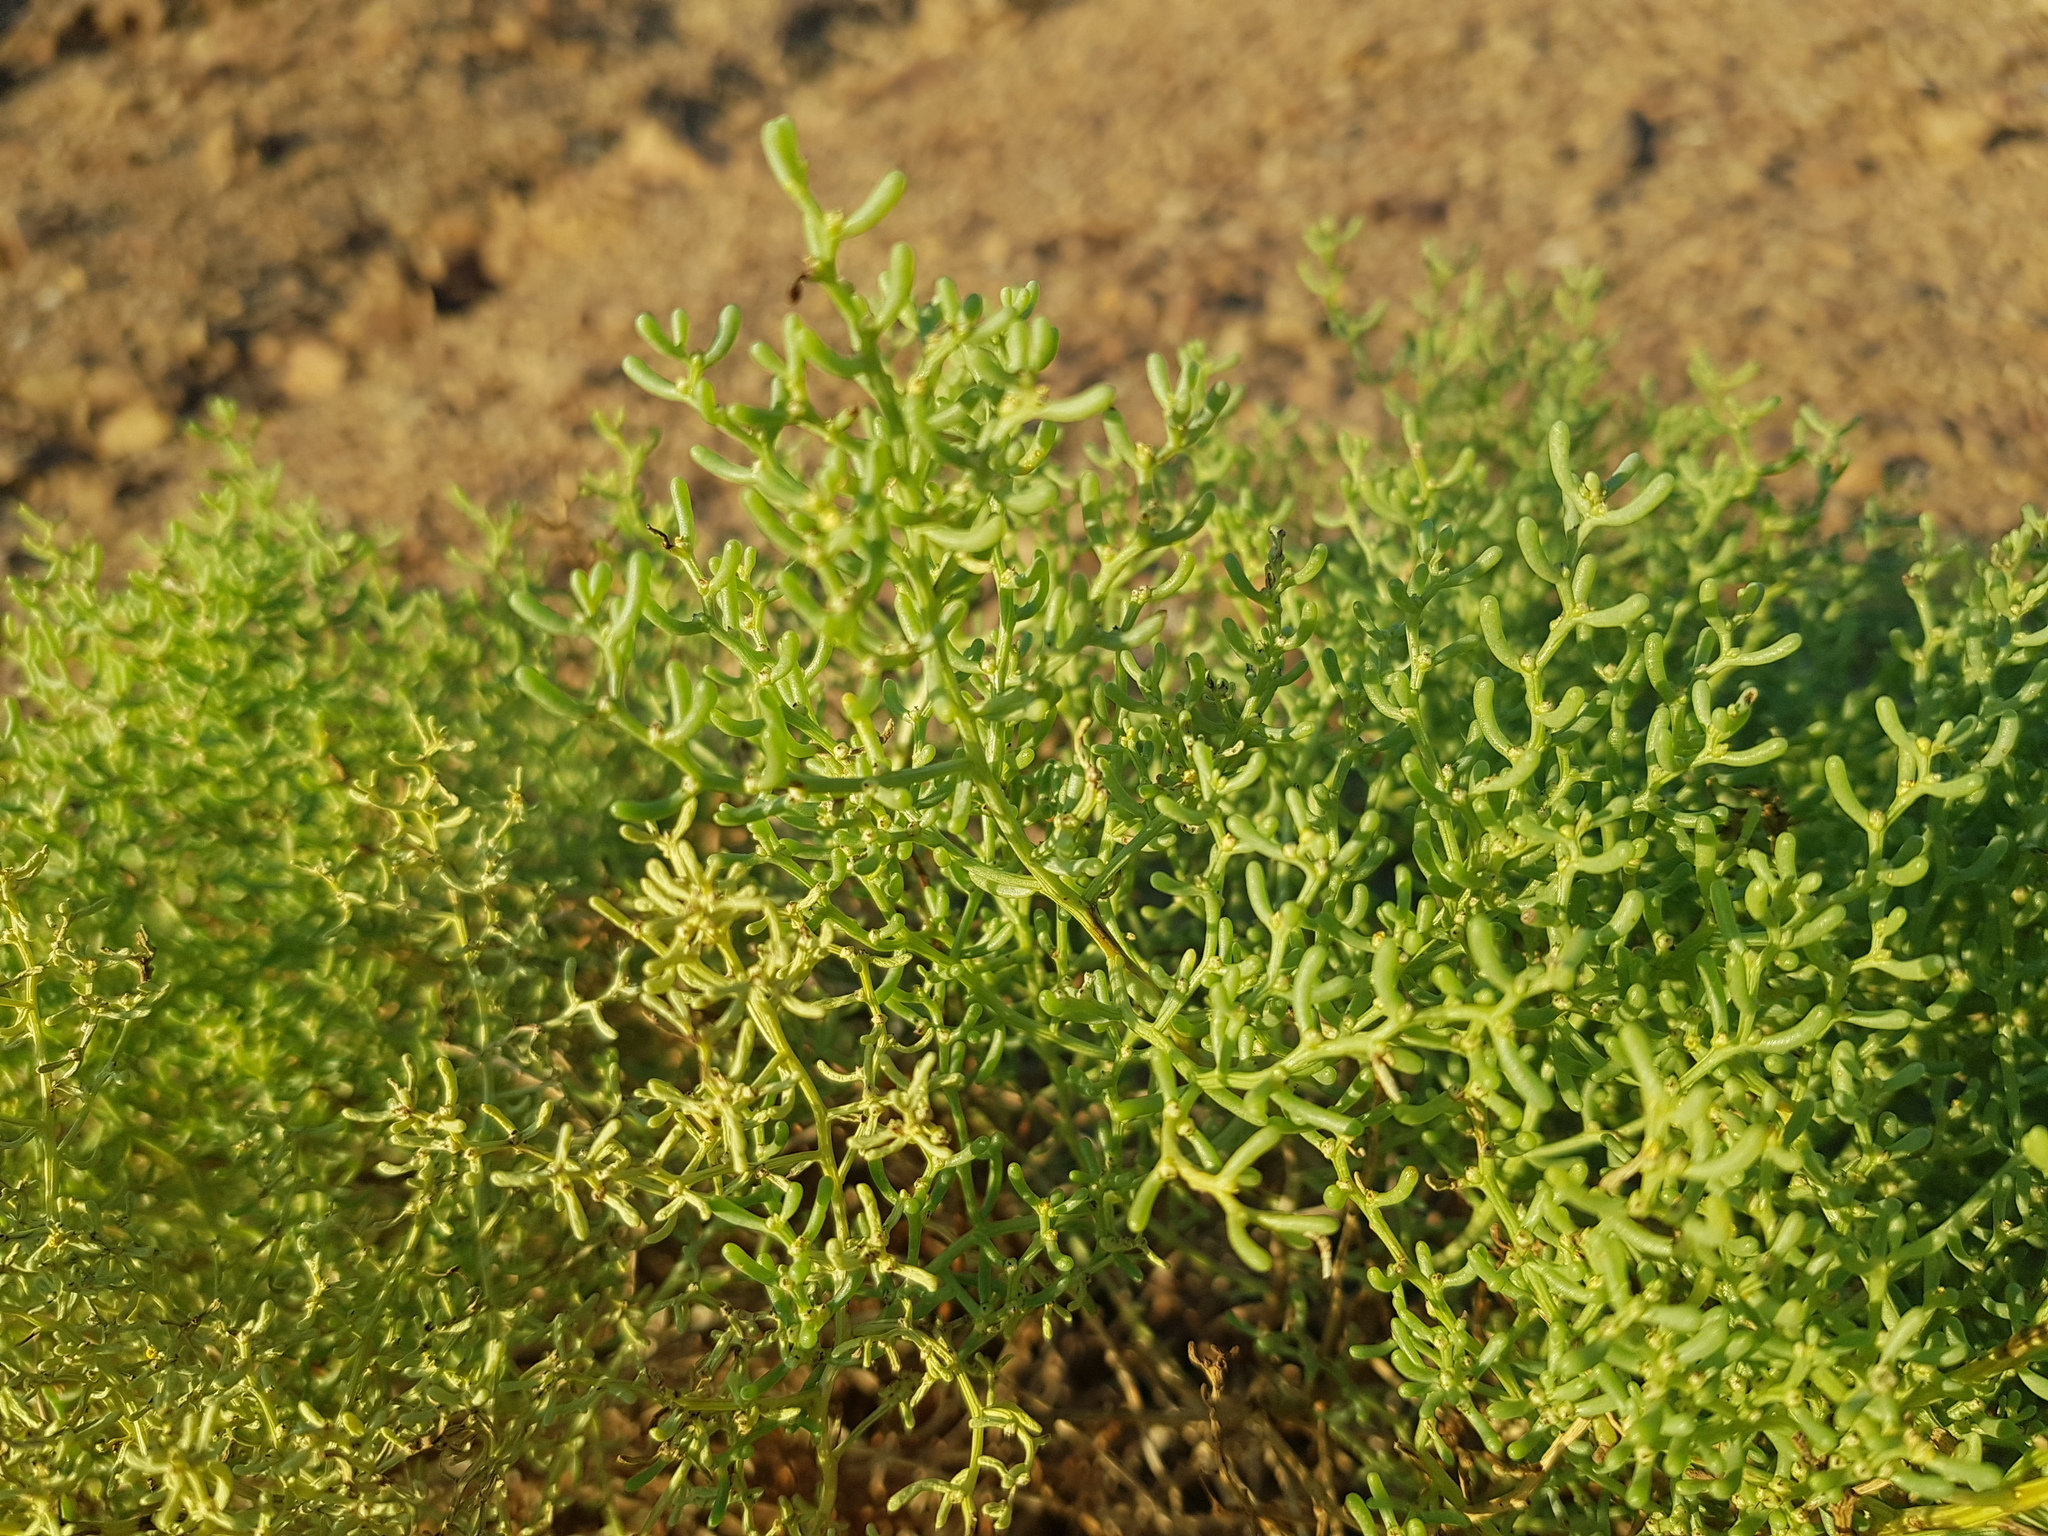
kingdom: Plantae
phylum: Tracheophyta
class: Magnoliopsida
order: Caryophyllales
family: Amaranthaceae
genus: Haloxylon
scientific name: Haloxylon regelii
